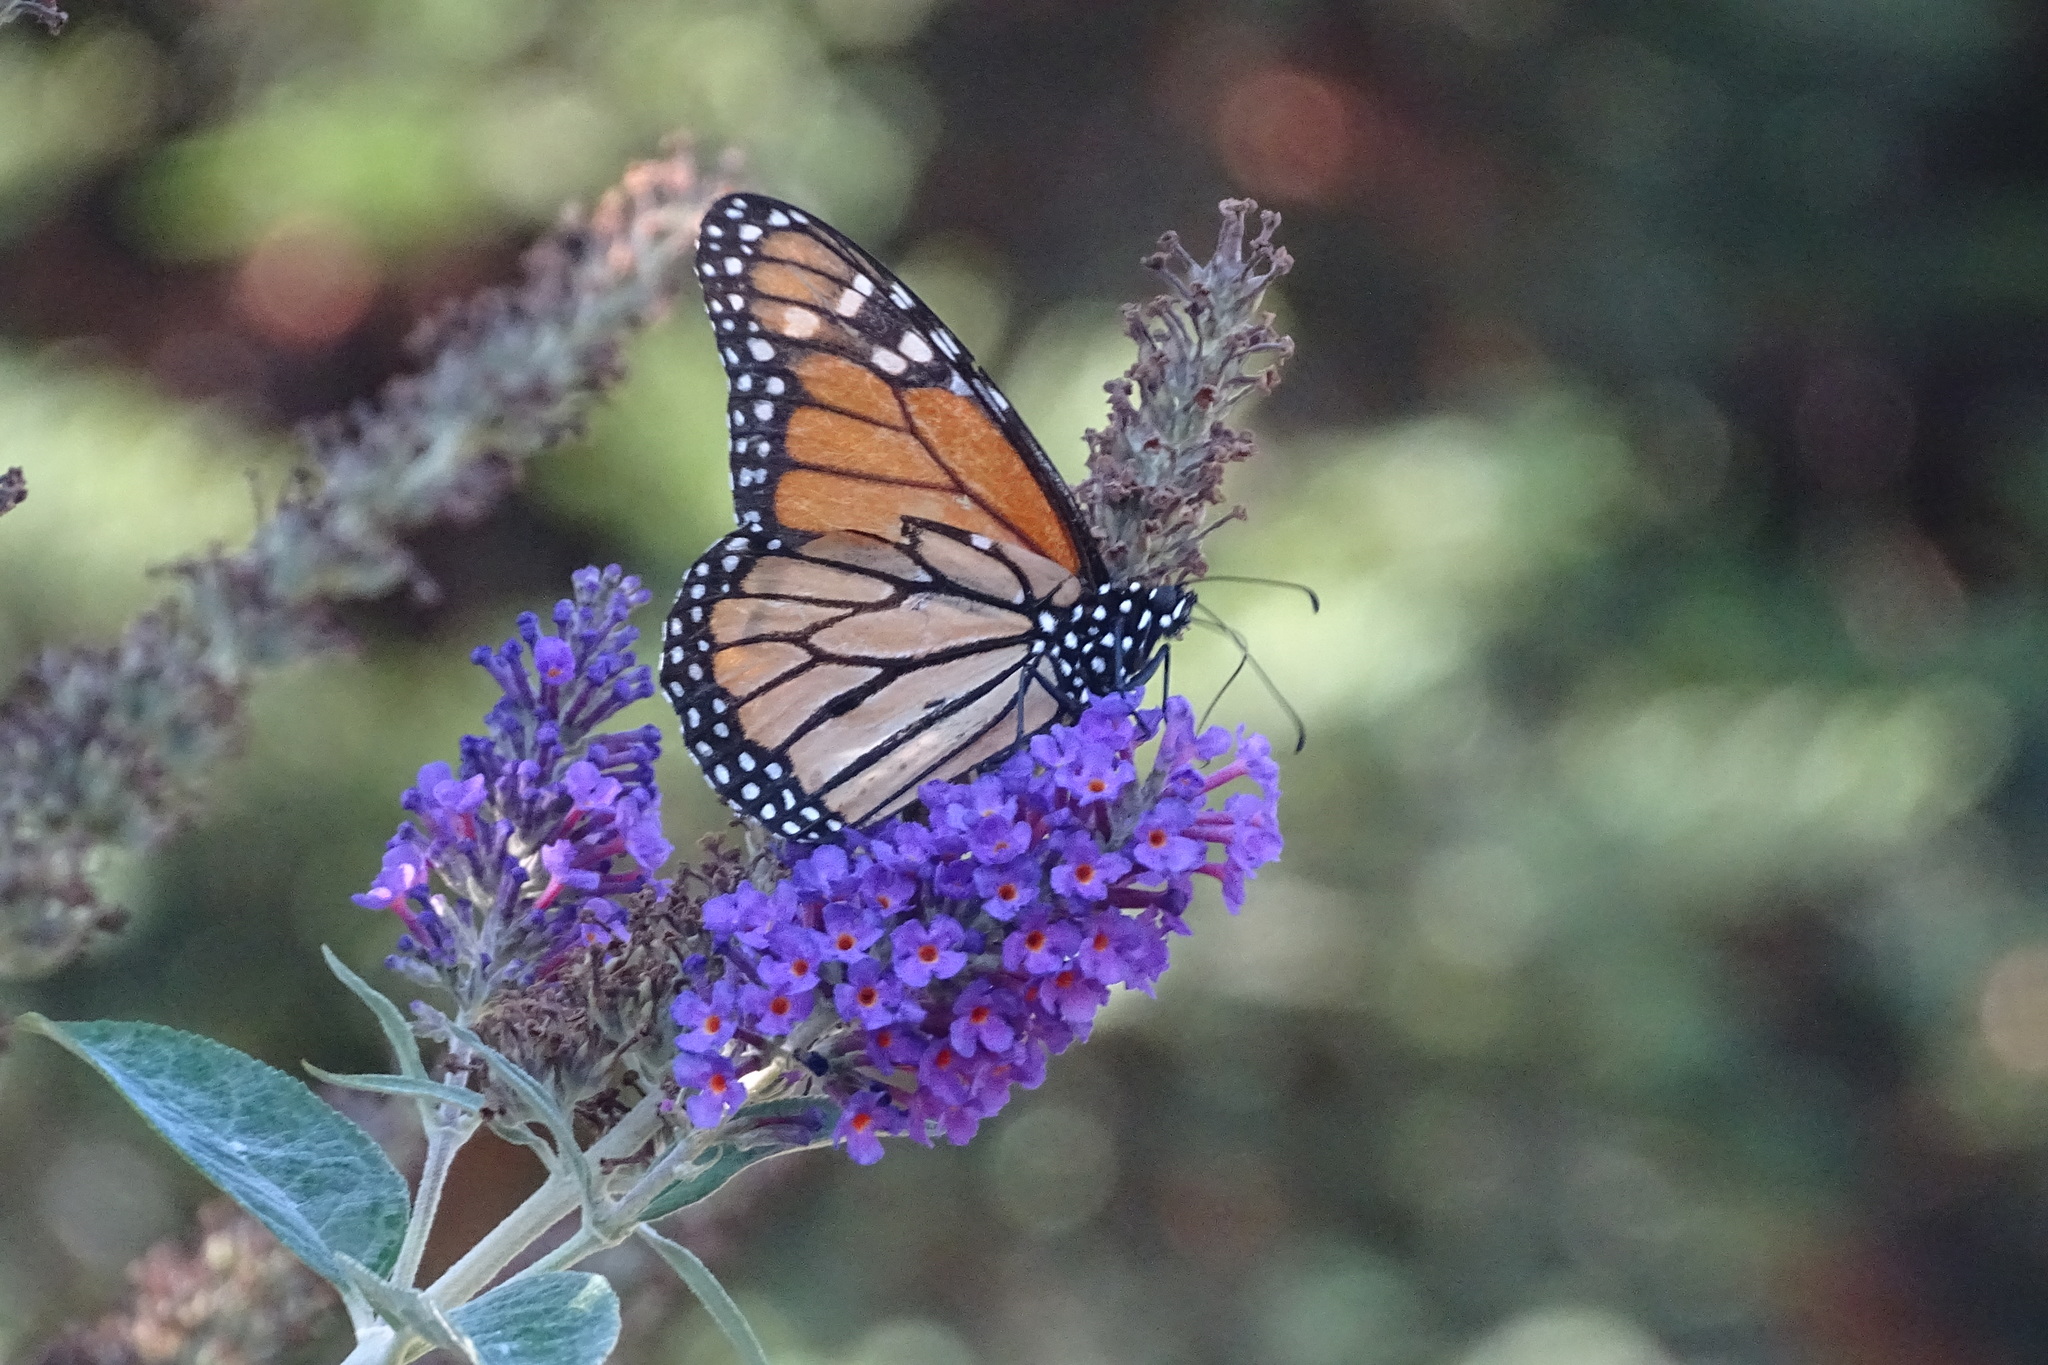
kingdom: Animalia
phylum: Arthropoda
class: Insecta
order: Lepidoptera
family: Nymphalidae
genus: Danaus
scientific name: Danaus plexippus
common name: Monarch
